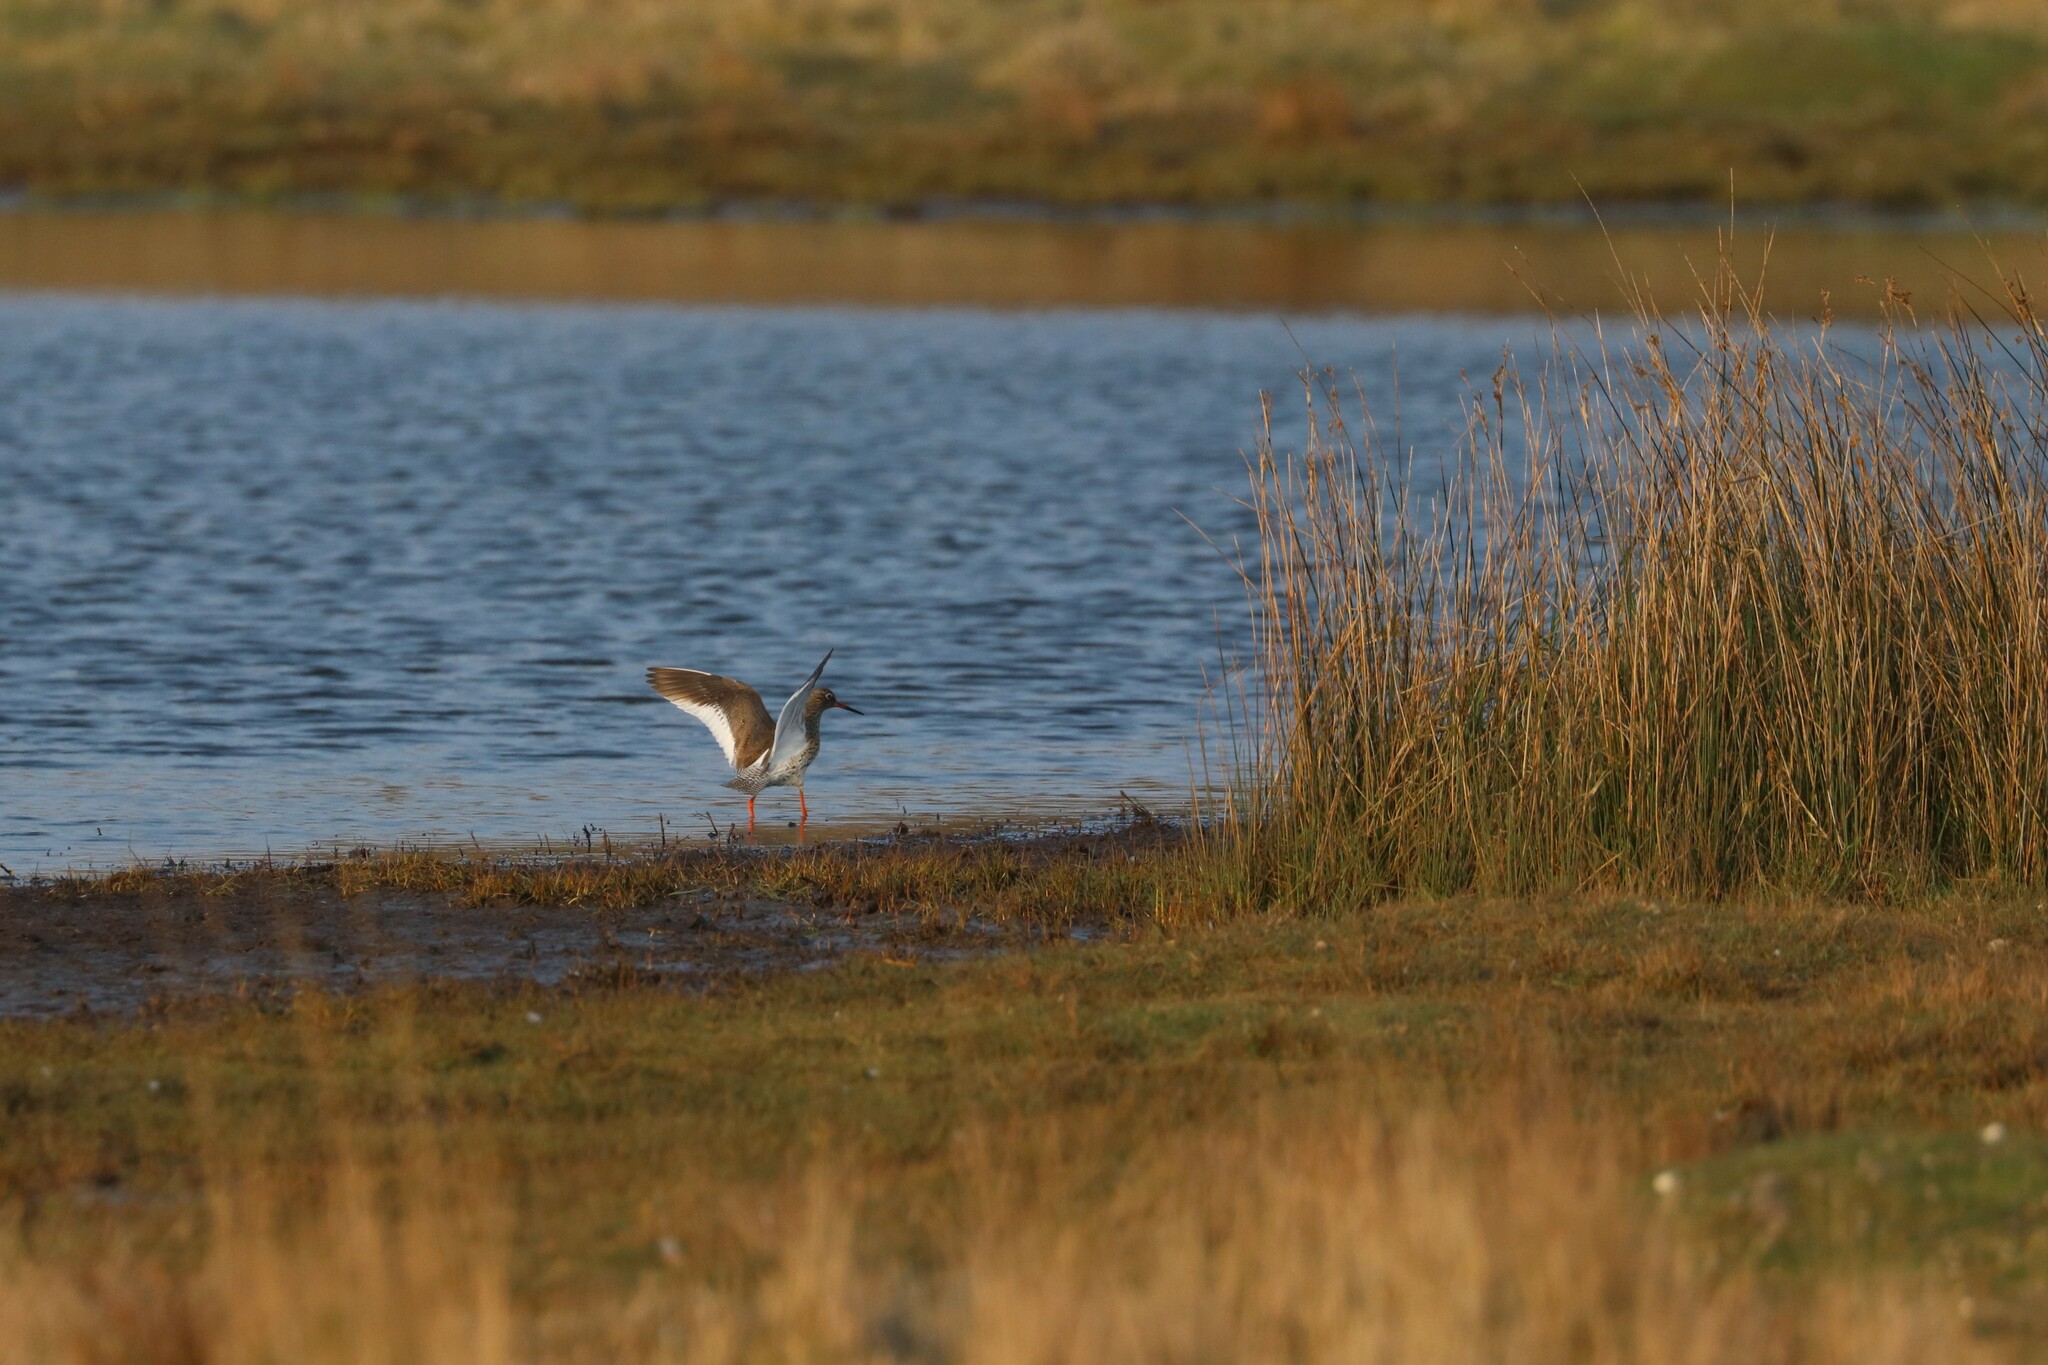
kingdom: Animalia
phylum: Chordata
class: Aves
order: Charadriiformes
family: Scolopacidae
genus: Tringa
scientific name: Tringa totanus
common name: Common redshank
